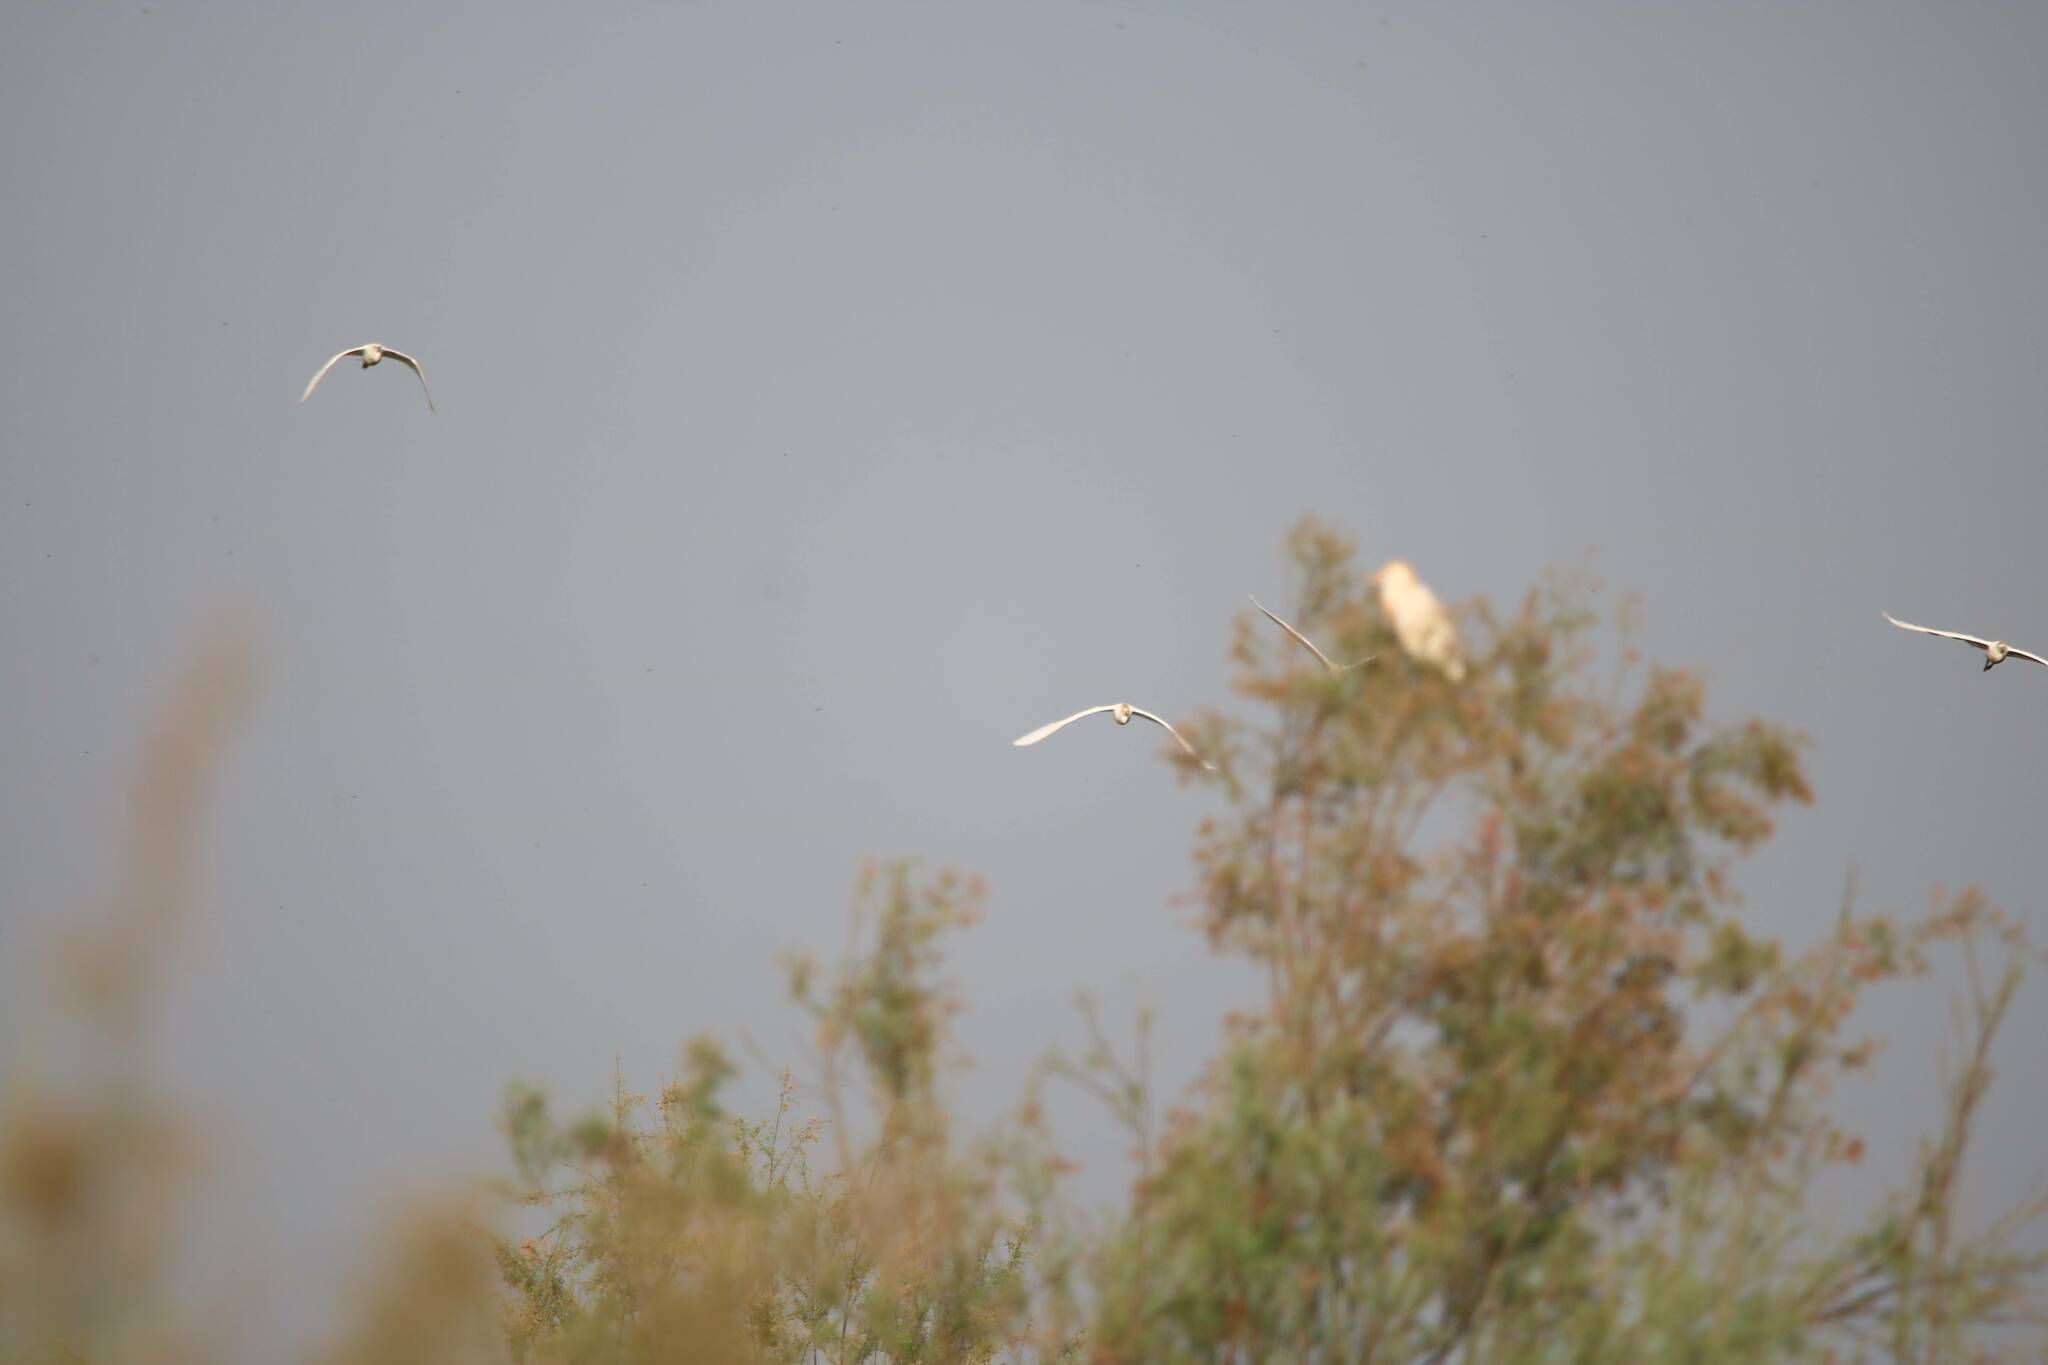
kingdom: Animalia
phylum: Chordata
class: Aves
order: Pelecaniformes
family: Ardeidae
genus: Bubulcus
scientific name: Bubulcus ibis
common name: Cattle egret
